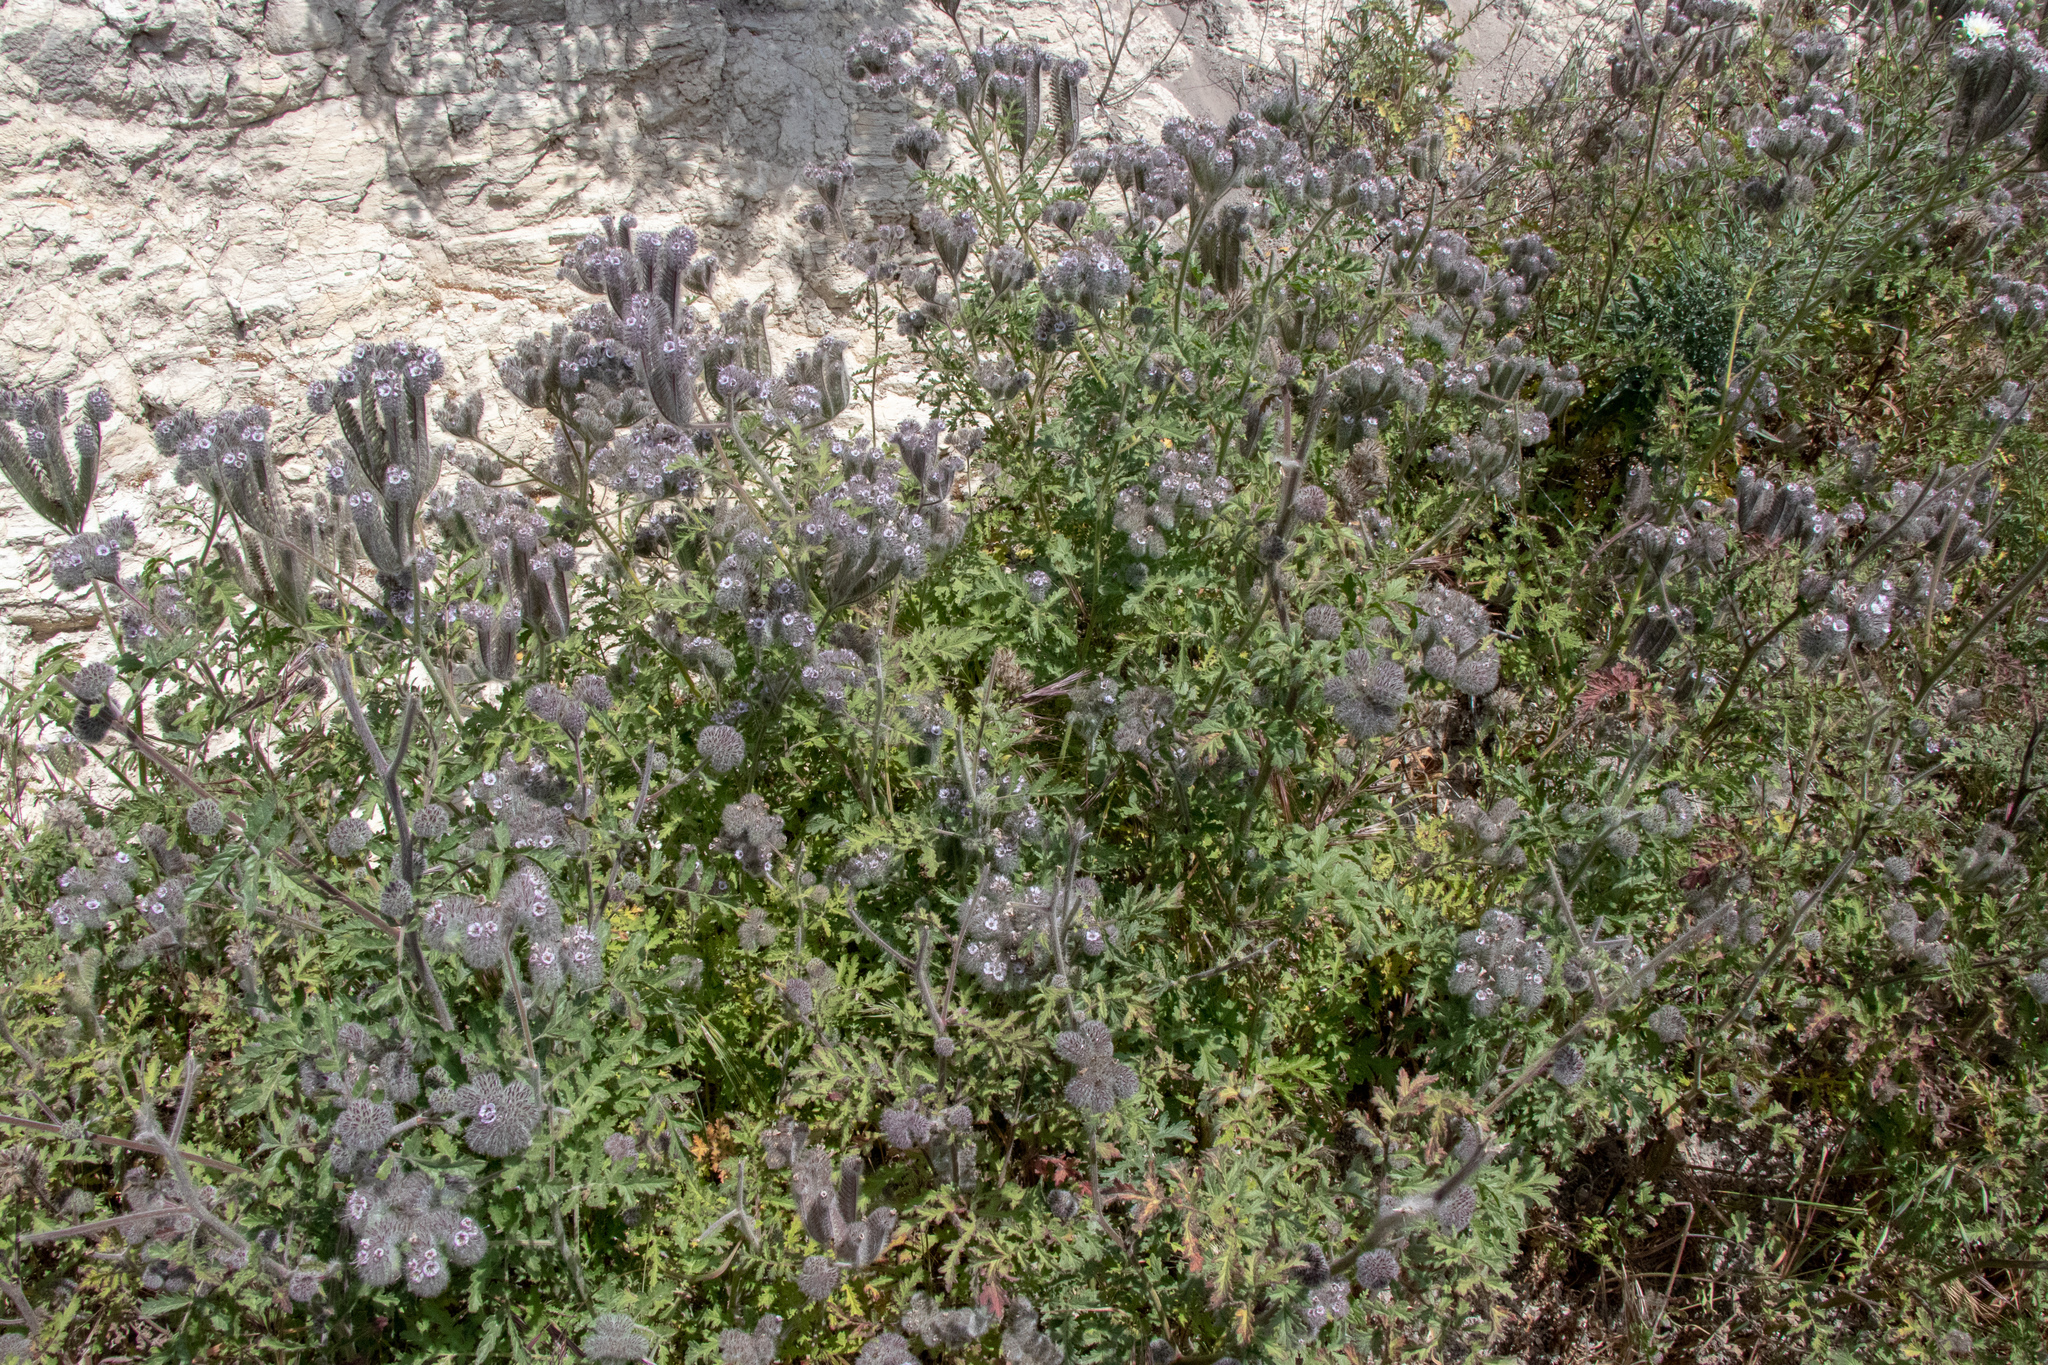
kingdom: Plantae
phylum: Tracheophyta
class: Magnoliopsida
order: Boraginales
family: Hydrophyllaceae
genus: Phacelia
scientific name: Phacelia hubbyi
